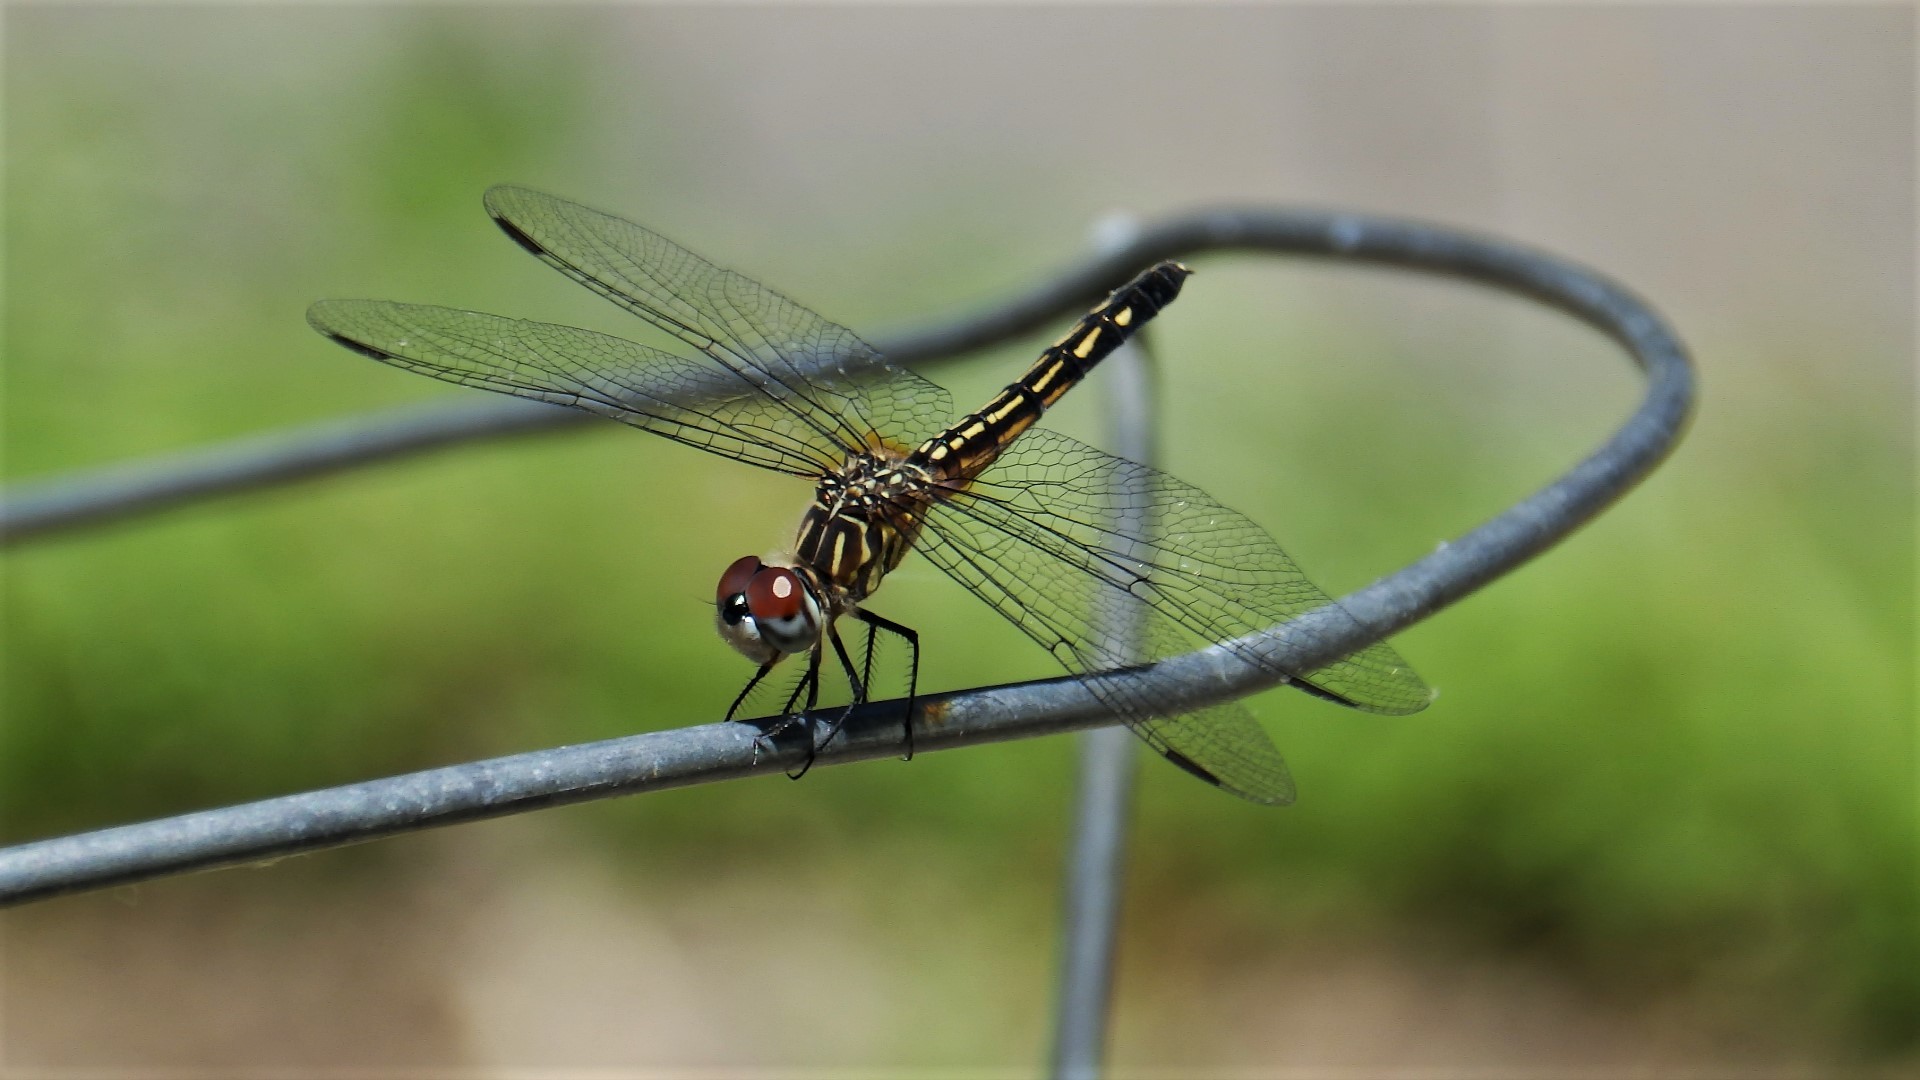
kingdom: Animalia
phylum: Arthropoda
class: Insecta
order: Odonata
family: Libellulidae
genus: Pachydiplax
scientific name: Pachydiplax longipennis
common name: Blue dasher
